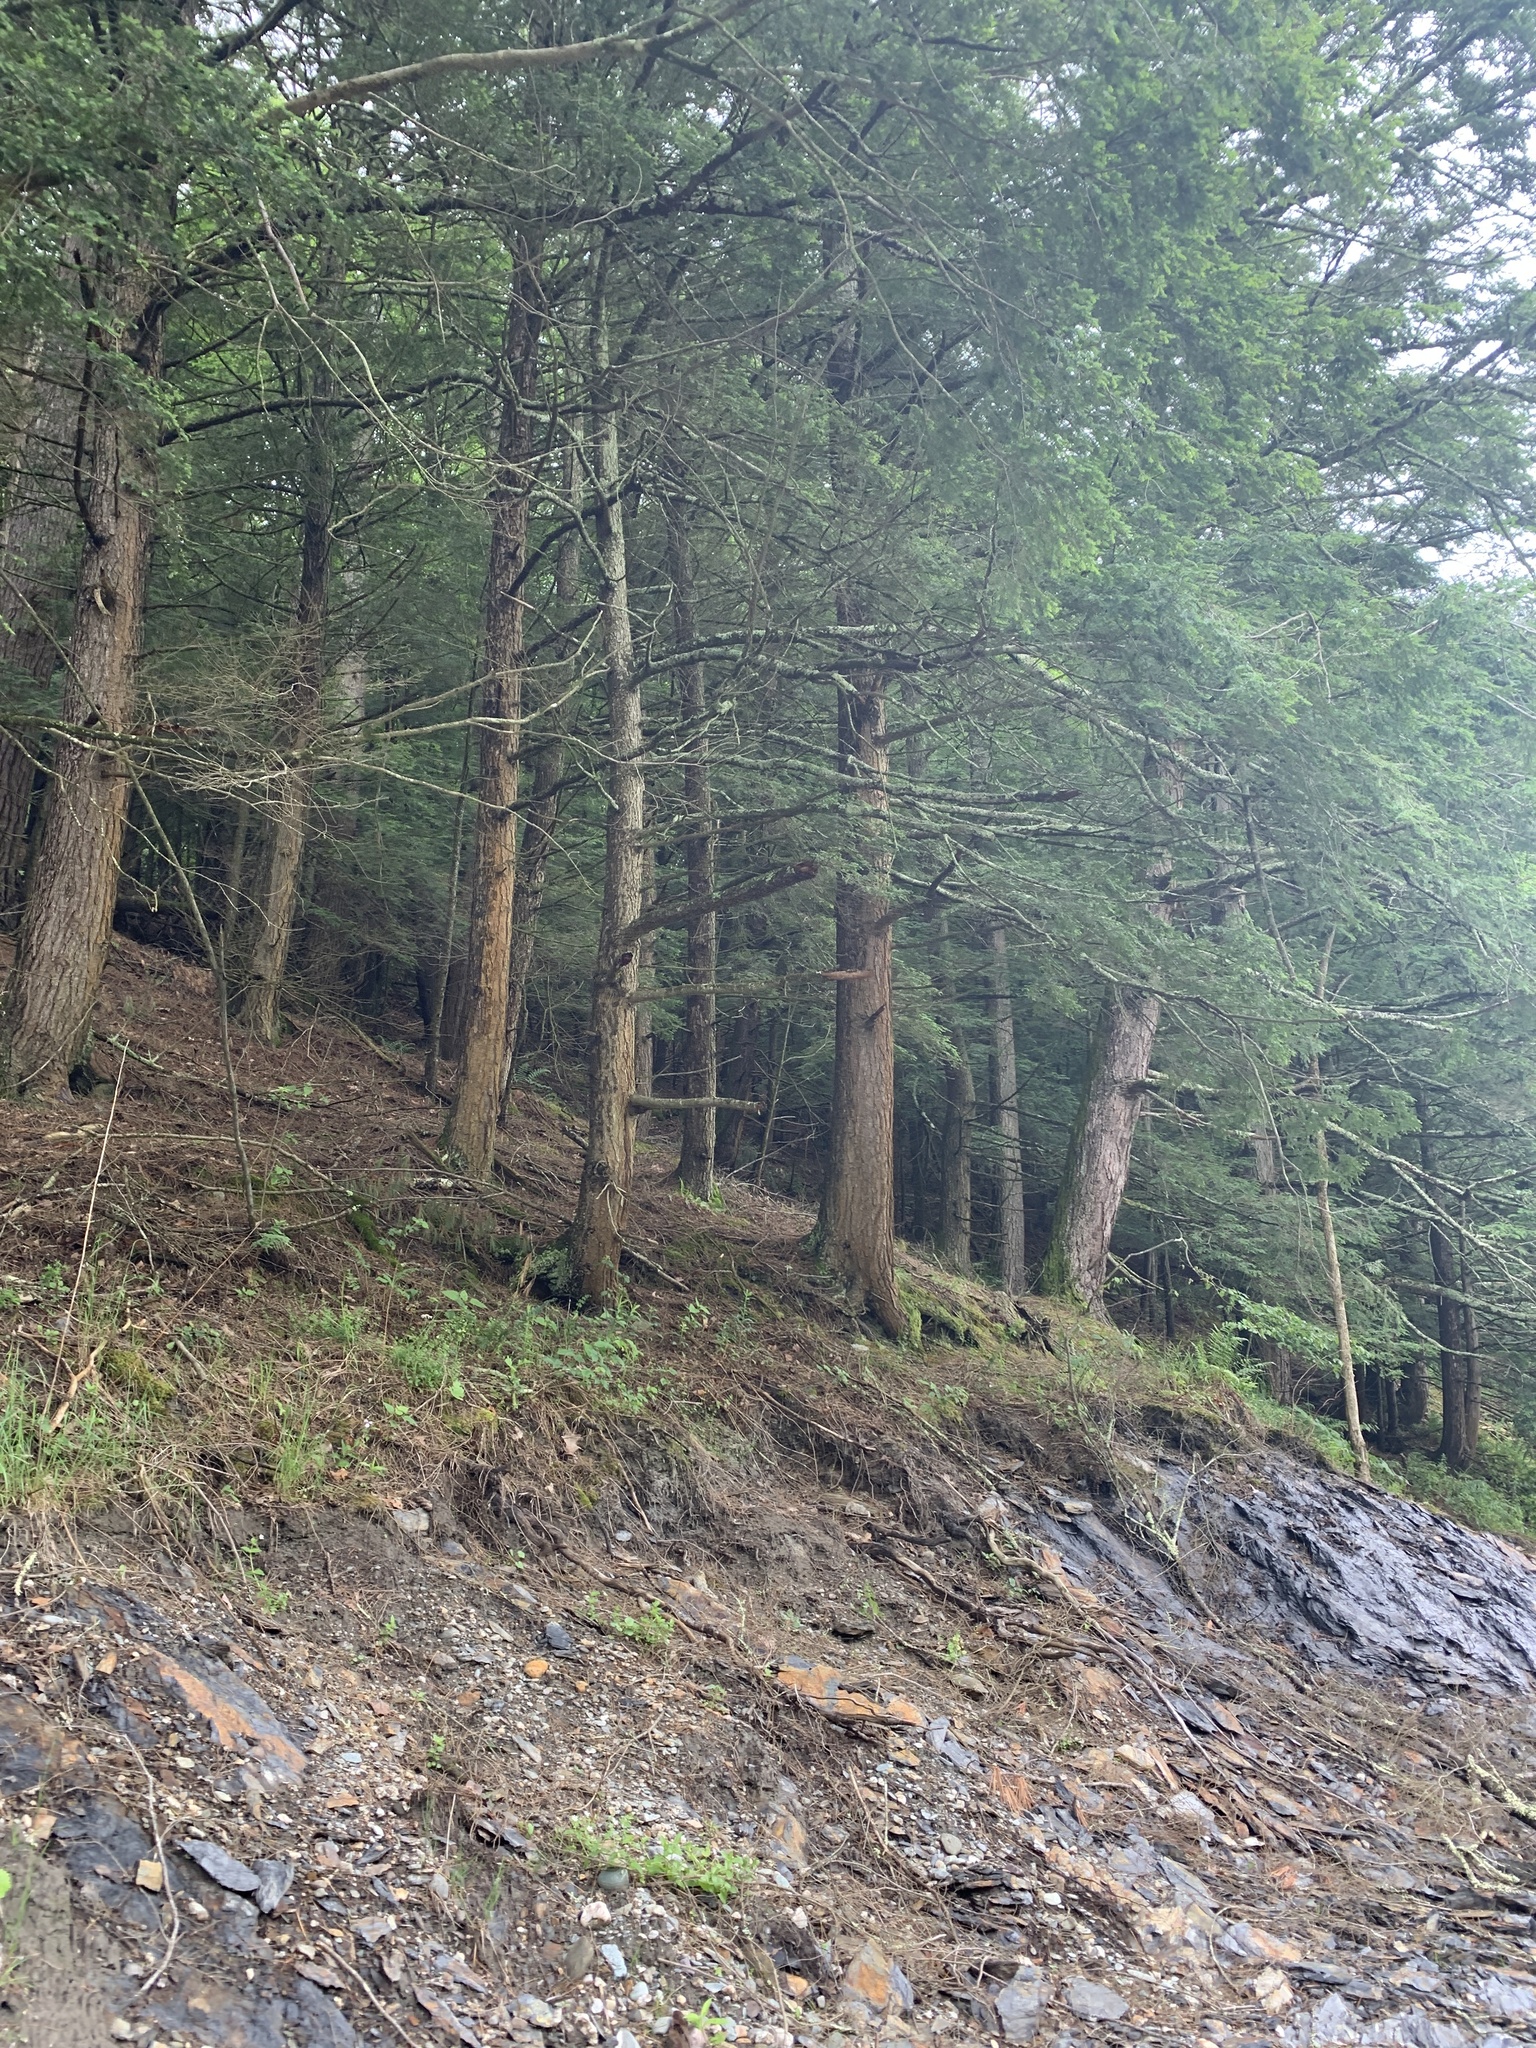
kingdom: Plantae
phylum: Tracheophyta
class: Pinopsida
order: Pinales
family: Pinaceae
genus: Tsuga
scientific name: Tsuga canadensis
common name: Eastern hemlock
